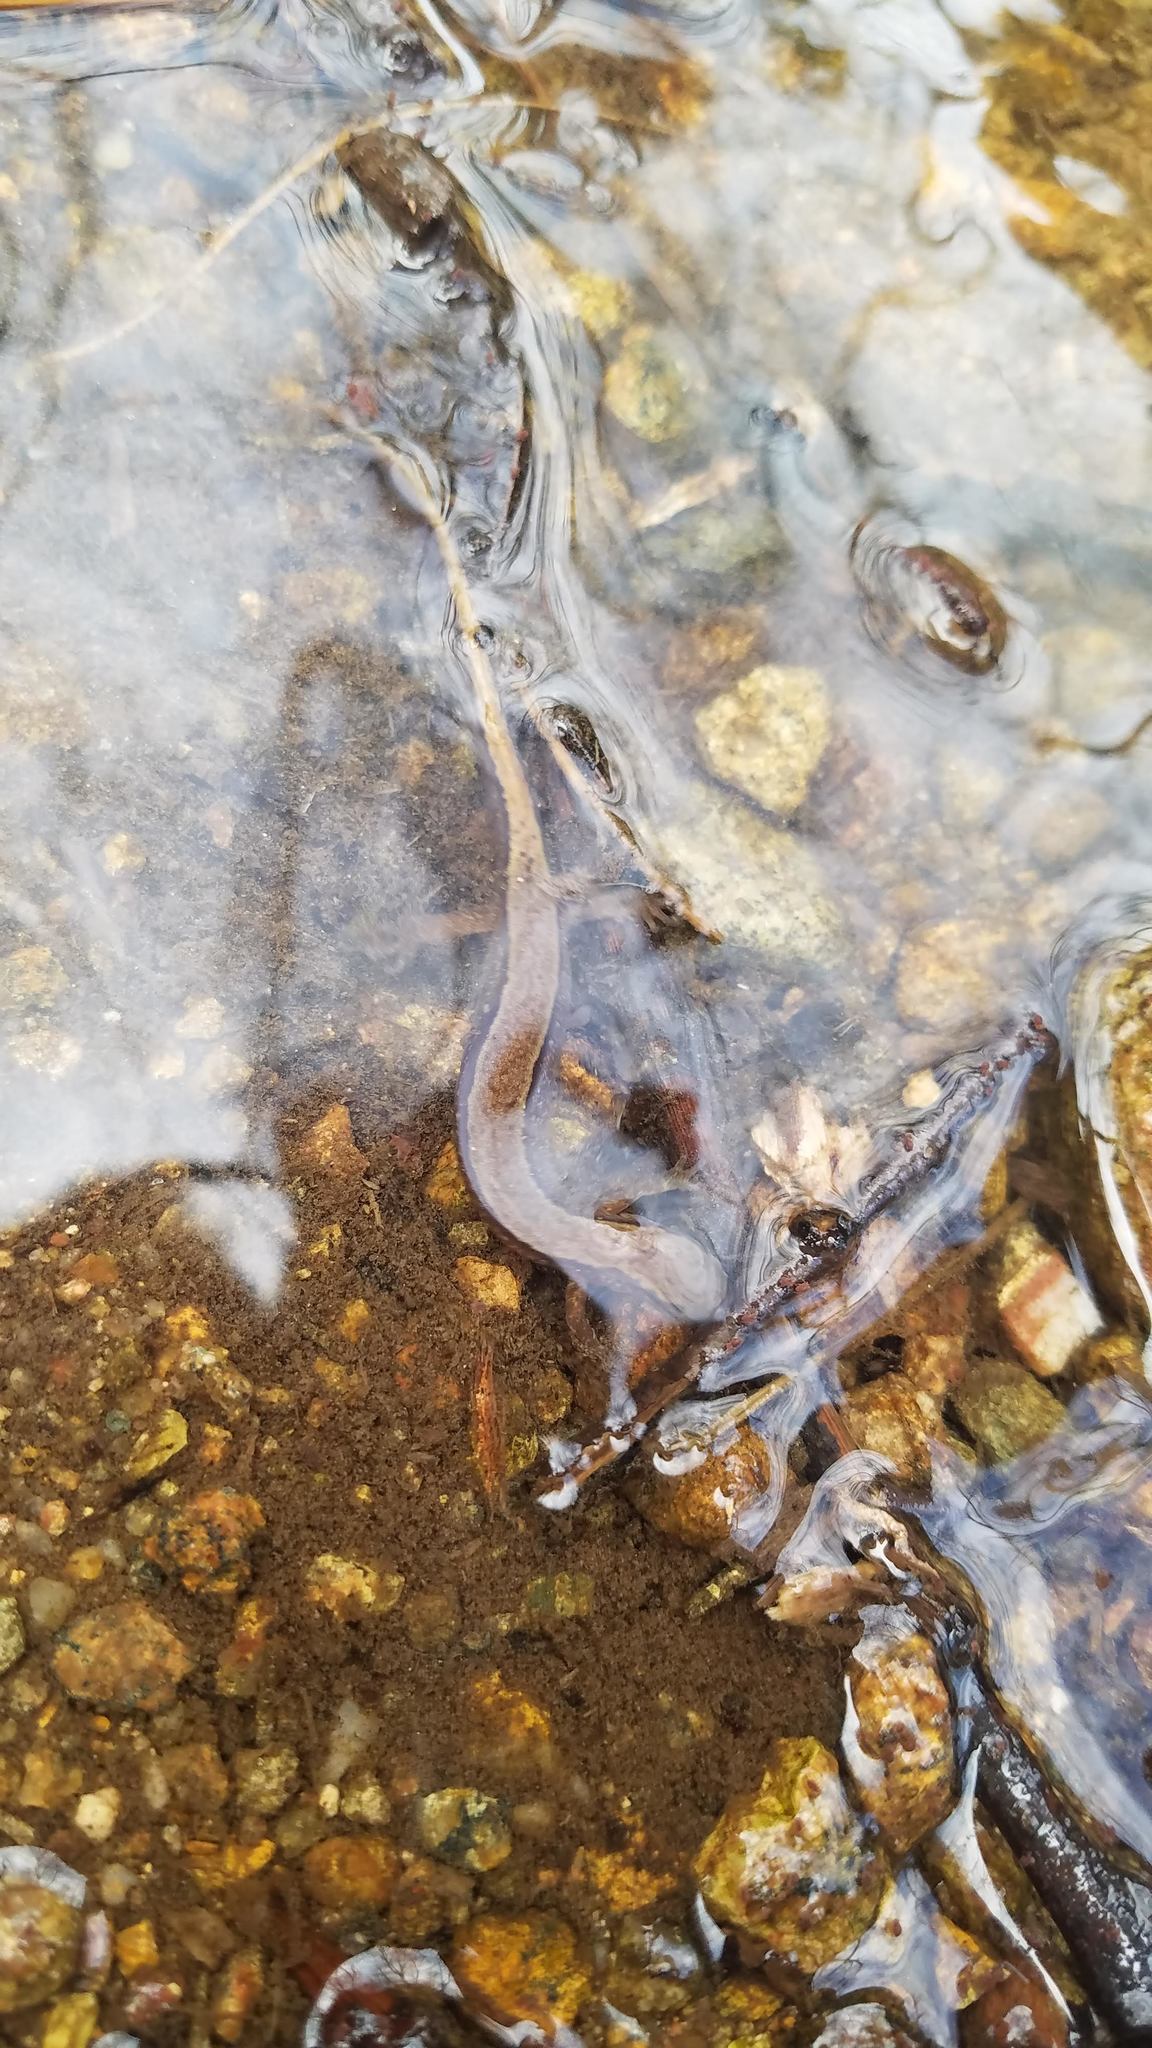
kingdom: Animalia
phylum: Chordata
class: Amphibia
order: Caudata
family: Plethodontidae
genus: Eurycea
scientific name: Eurycea bislineata
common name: Northern two-lined salamander
